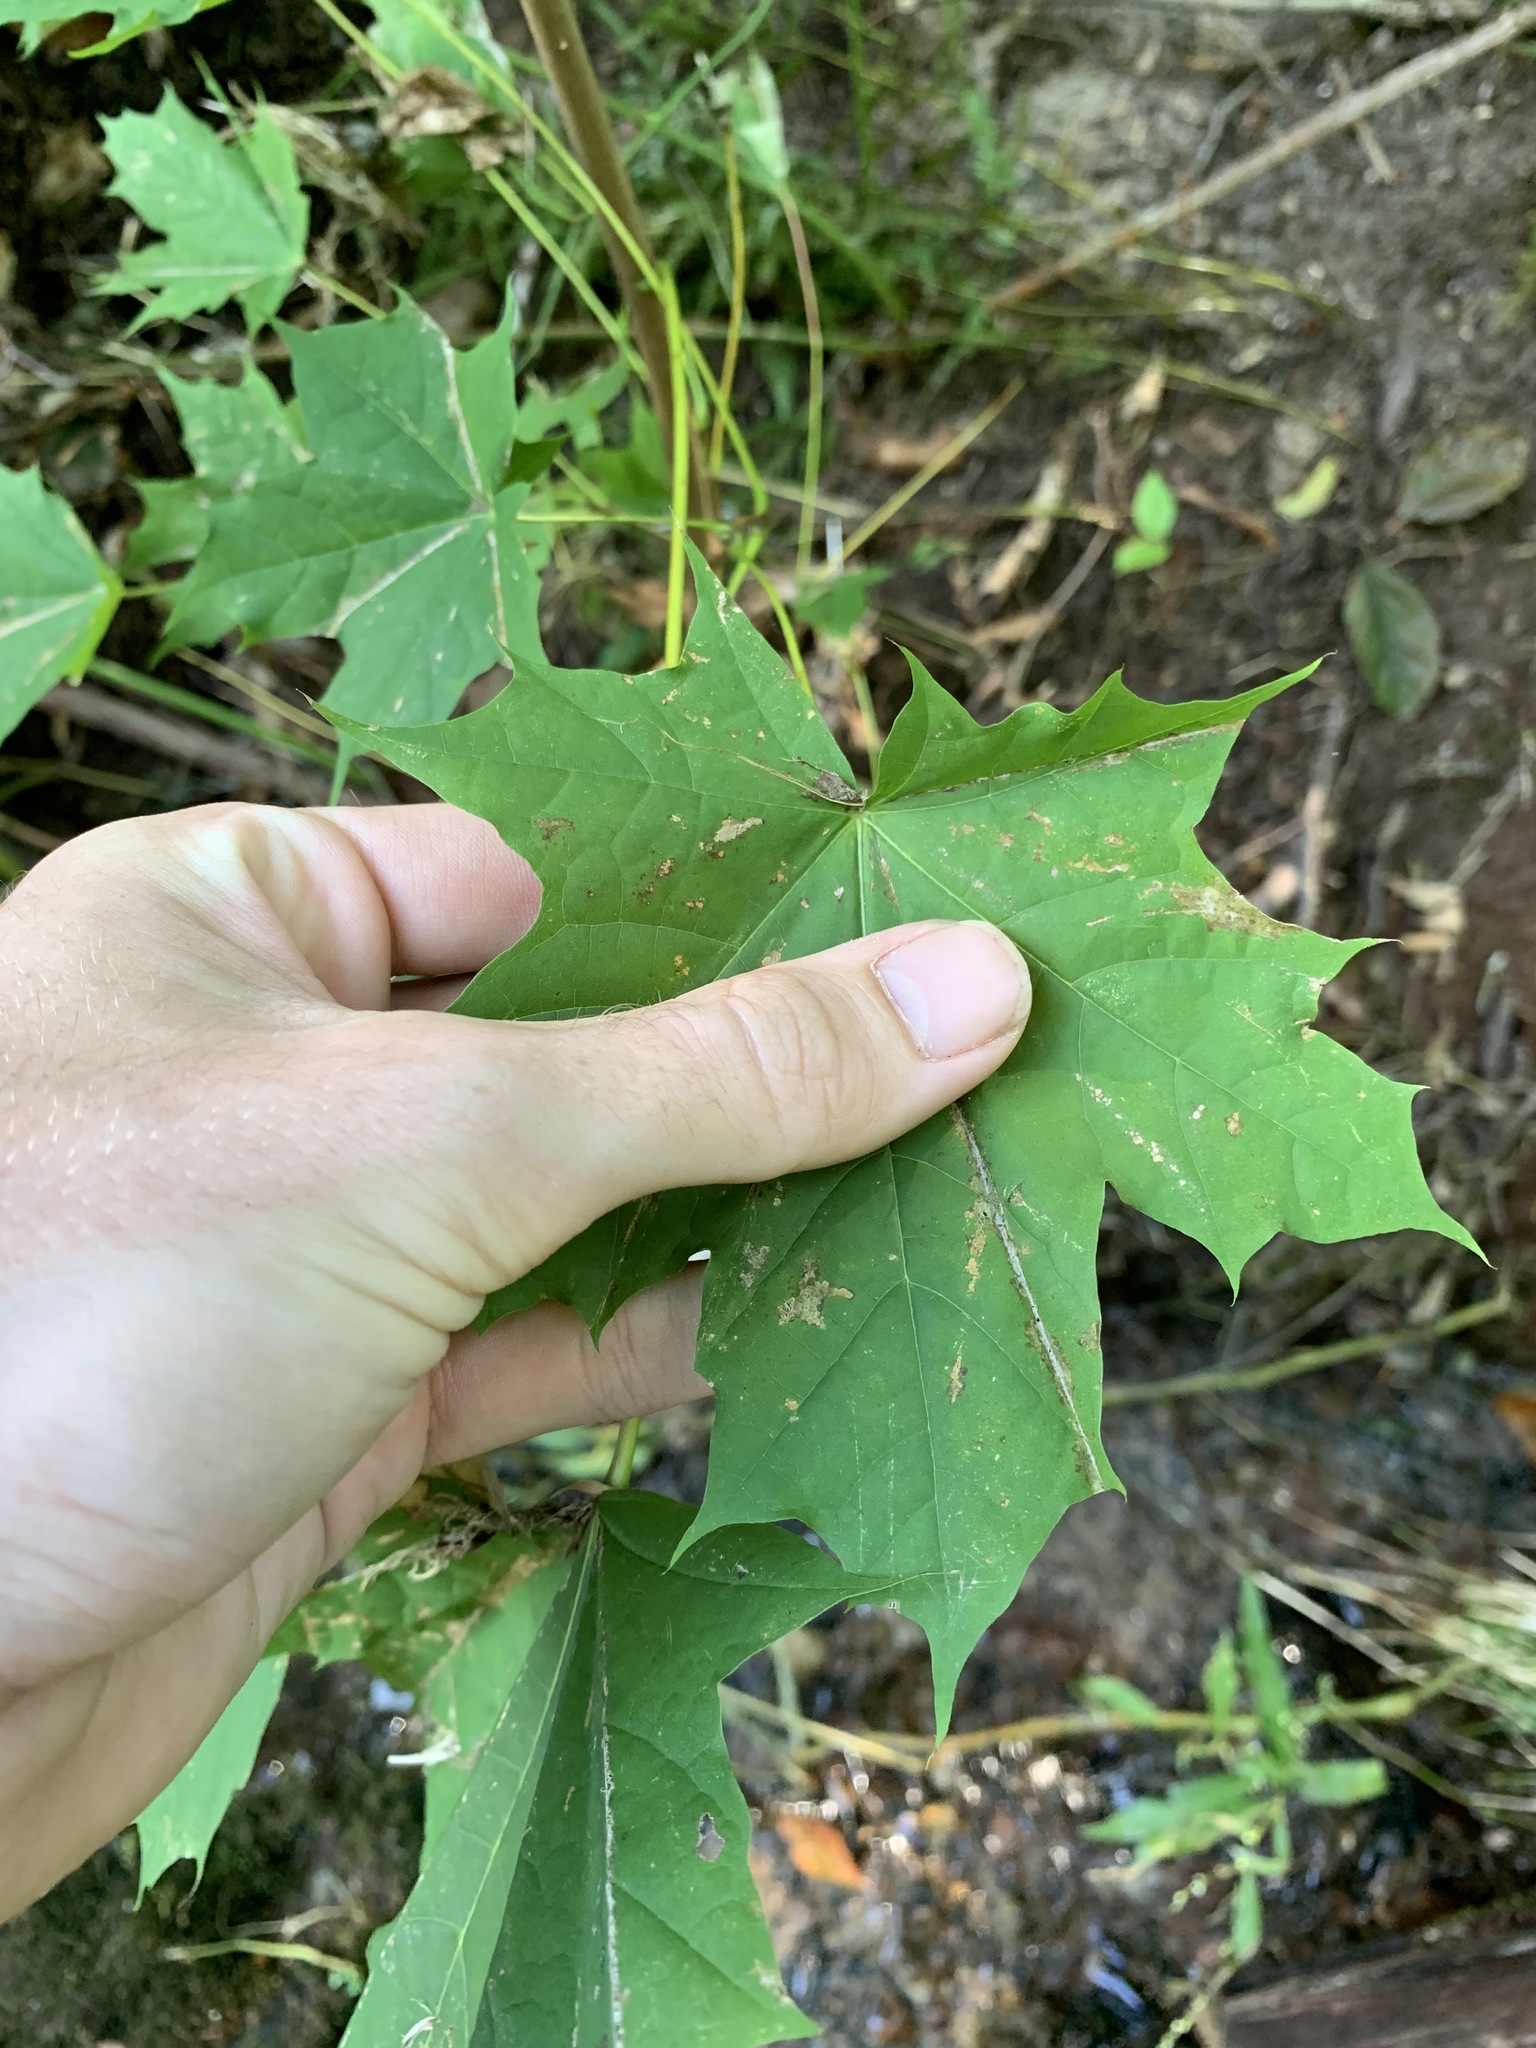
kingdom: Plantae
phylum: Tracheophyta
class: Magnoliopsida
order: Sapindales
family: Sapindaceae
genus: Acer
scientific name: Acer platanoides
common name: Norway maple
